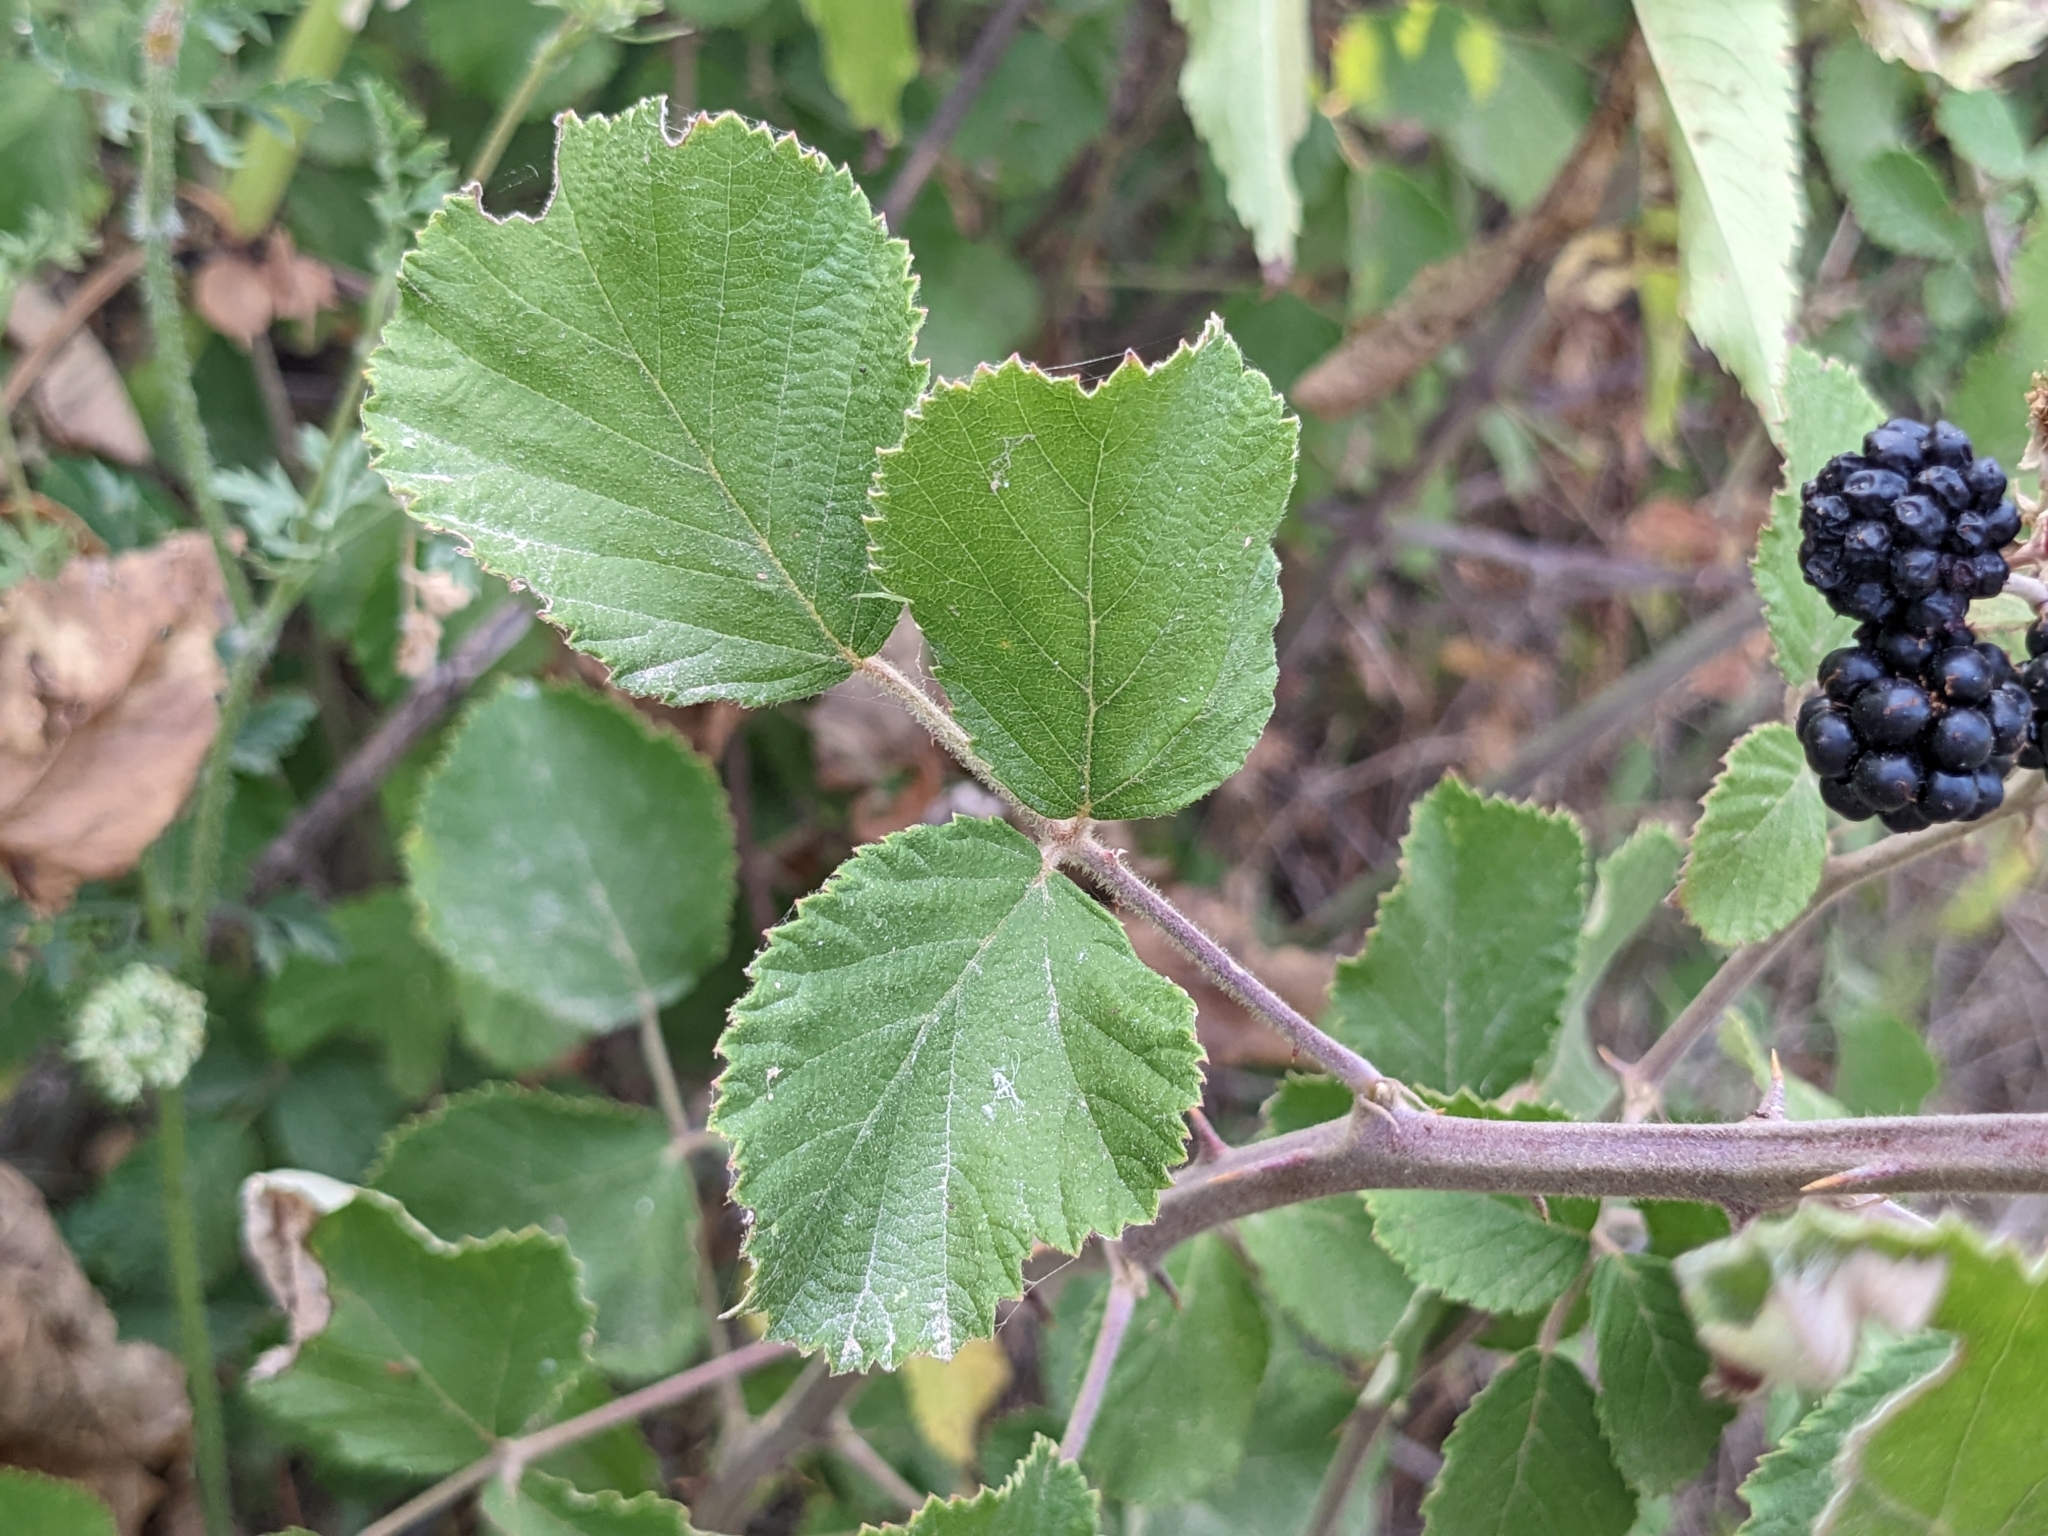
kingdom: Plantae
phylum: Tracheophyta
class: Magnoliopsida
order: Rosales
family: Rosaceae
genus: Rubus
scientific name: Rubus sanctus
